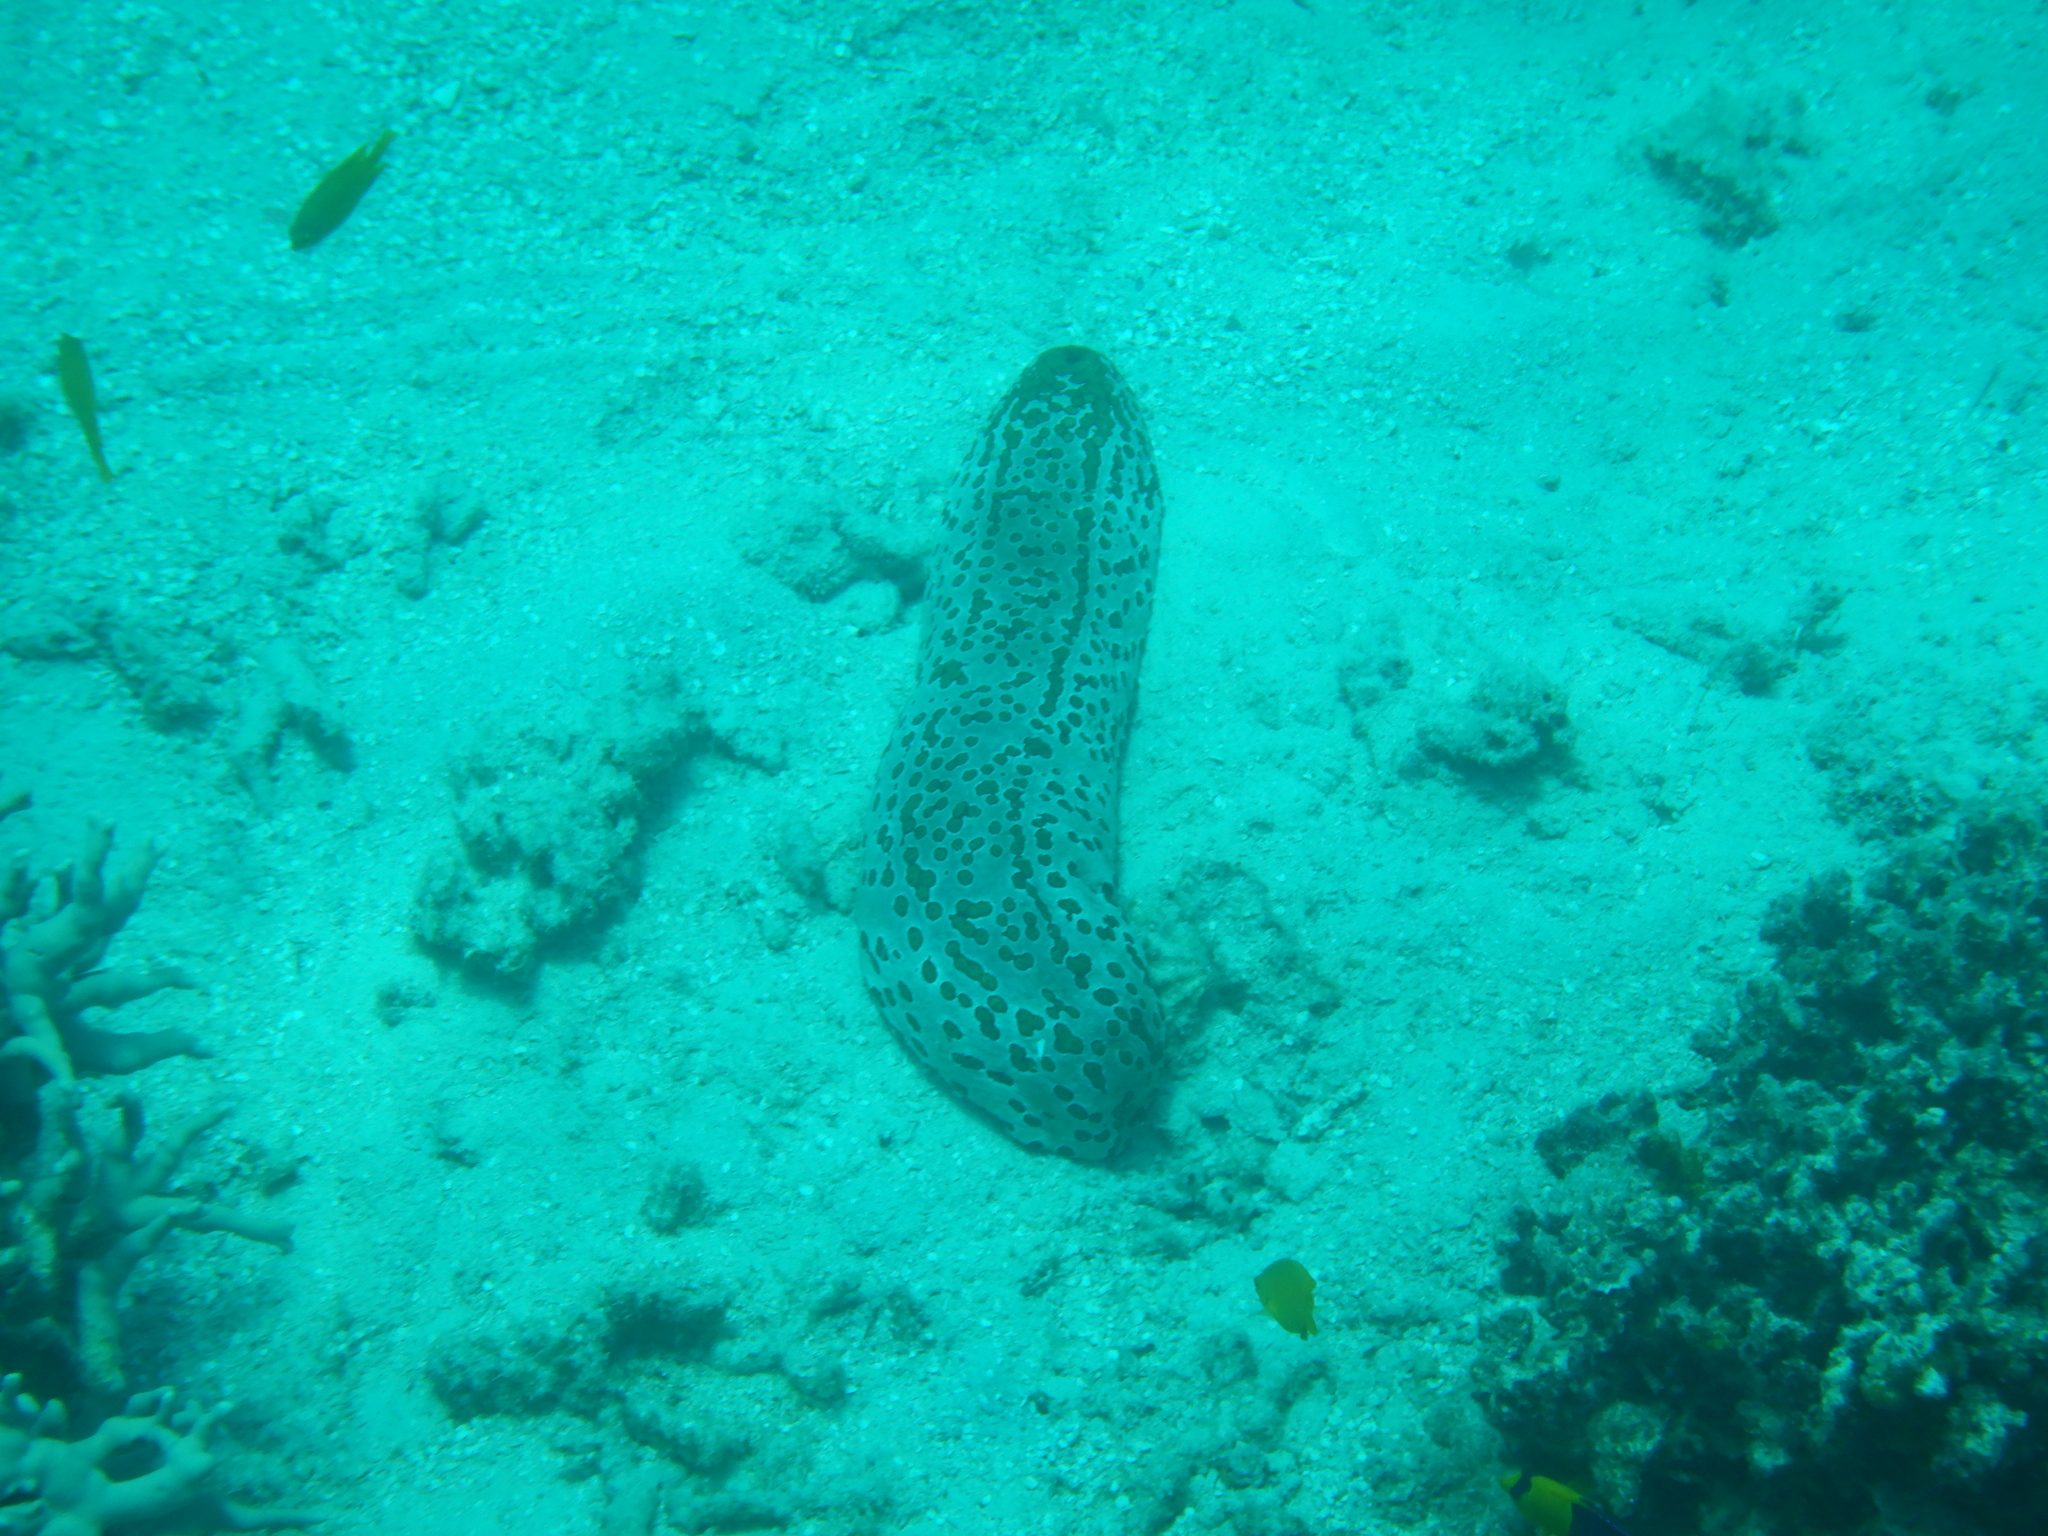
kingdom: Animalia
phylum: Echinodermata
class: Holothuroidea
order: Holothuriida
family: Holothuriidae
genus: Bohadschia
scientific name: Bohadschia argus
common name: Leopardfish
